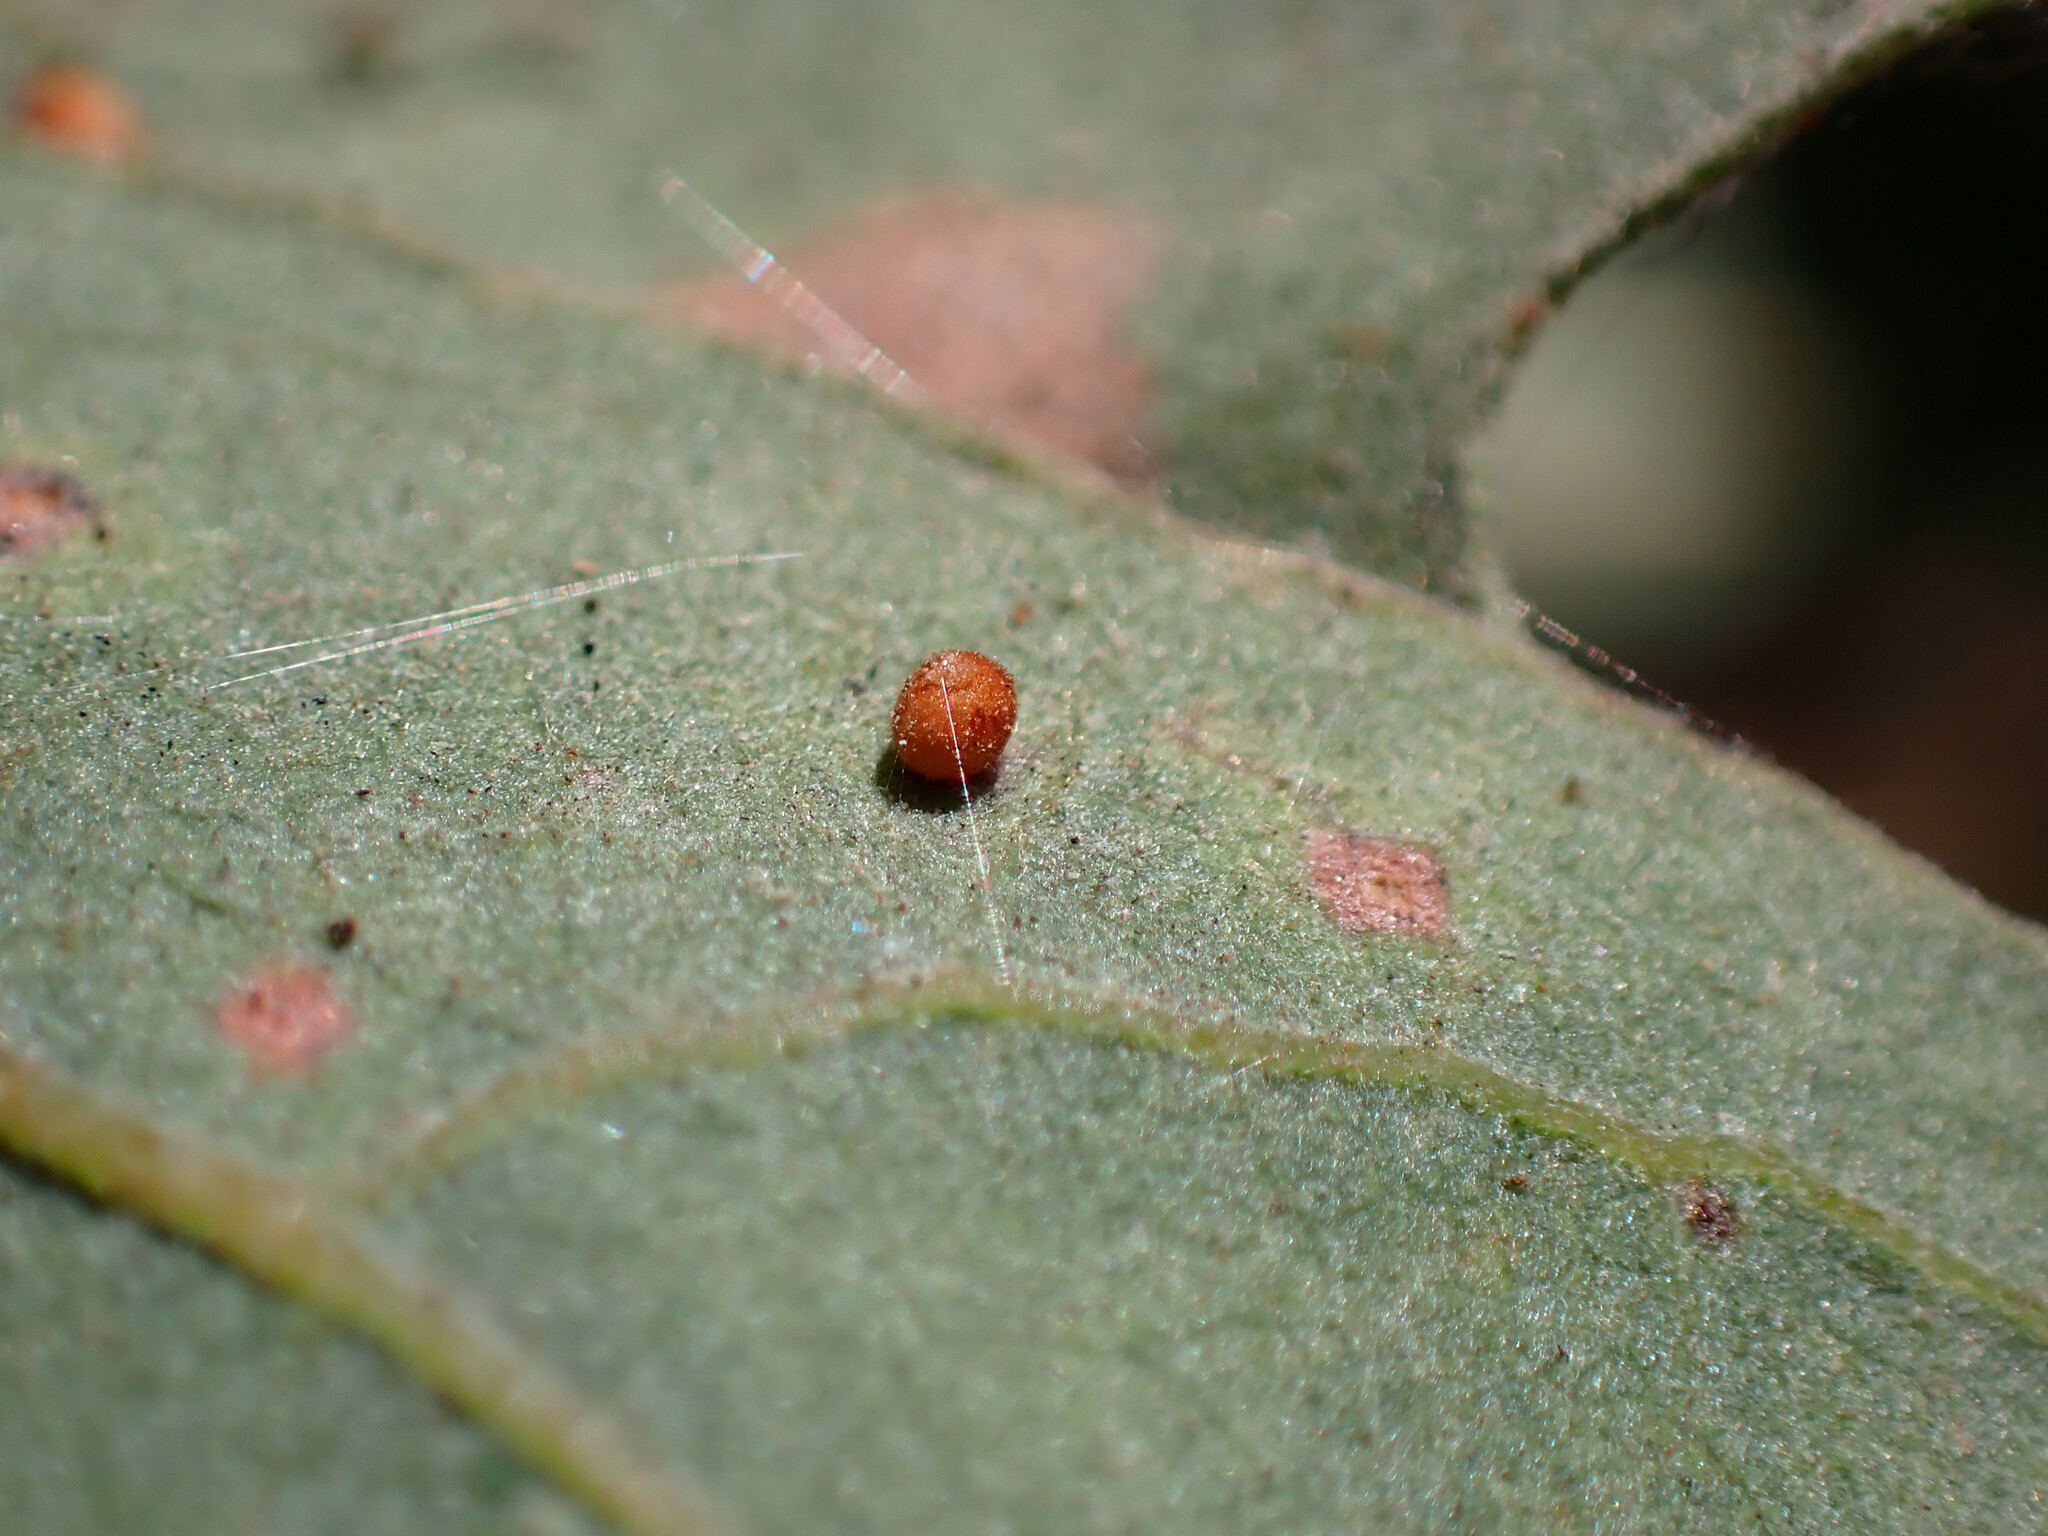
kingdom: Animalia
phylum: Arthropoda
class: Insecta
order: Hymenoptera
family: Cynipidae
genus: Neuroterus
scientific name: Neuroterus saltarius
